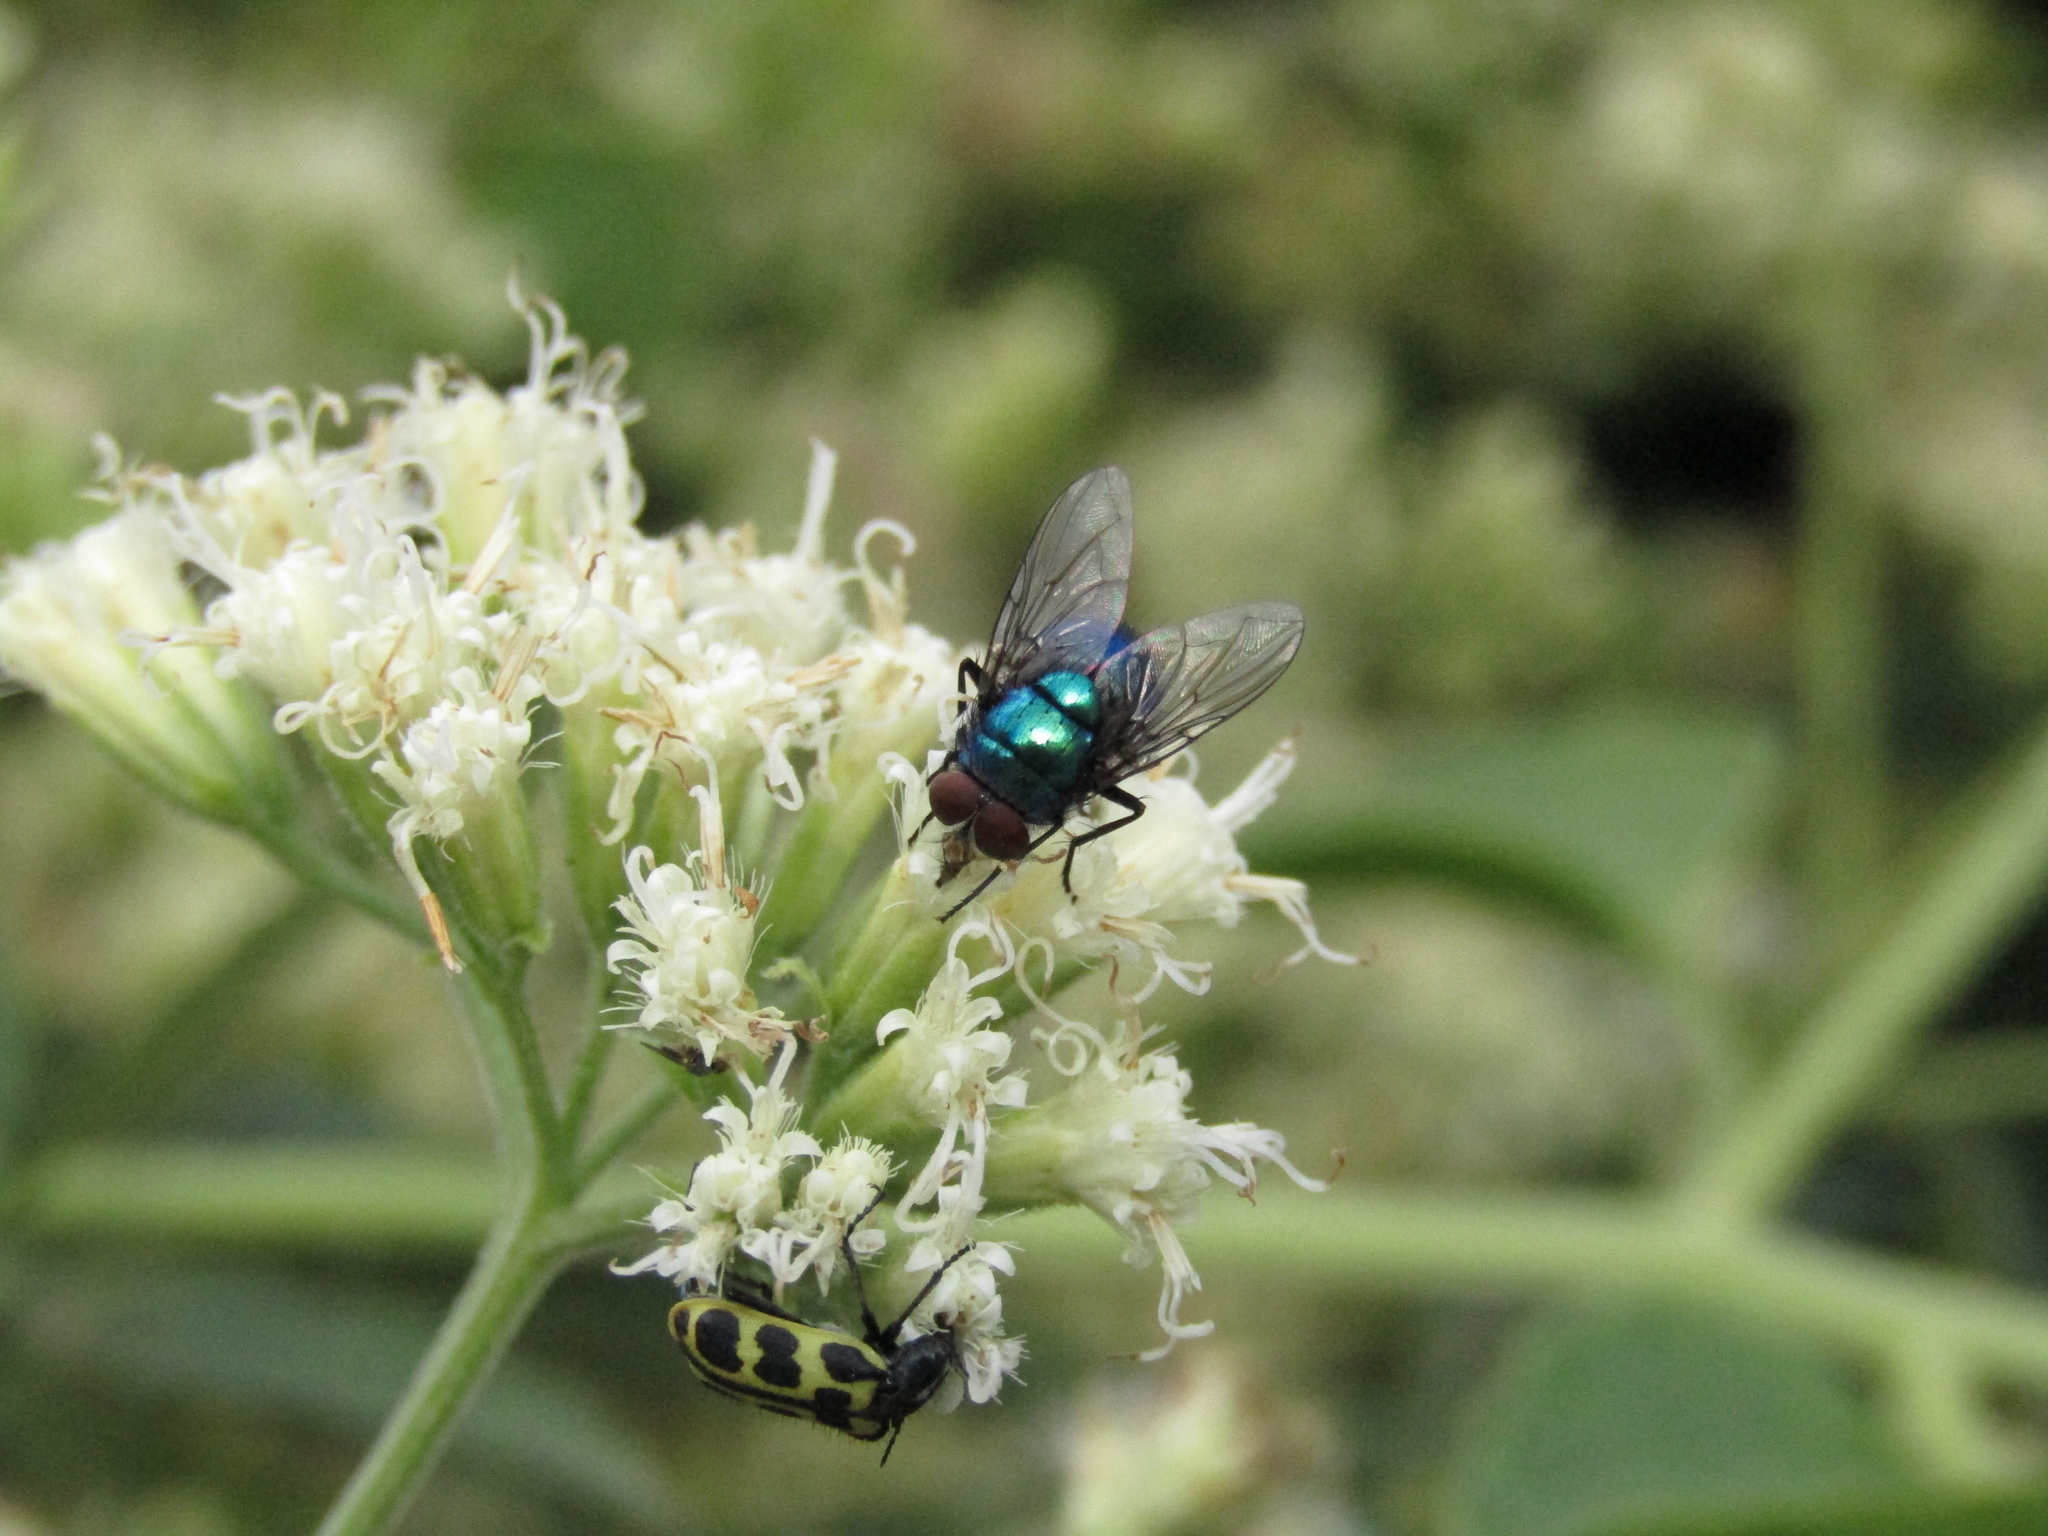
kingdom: Animalia
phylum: Arthropoda
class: Insecta
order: Diptera
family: Calliphoridae
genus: Lucilia
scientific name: Lucilia eximia
